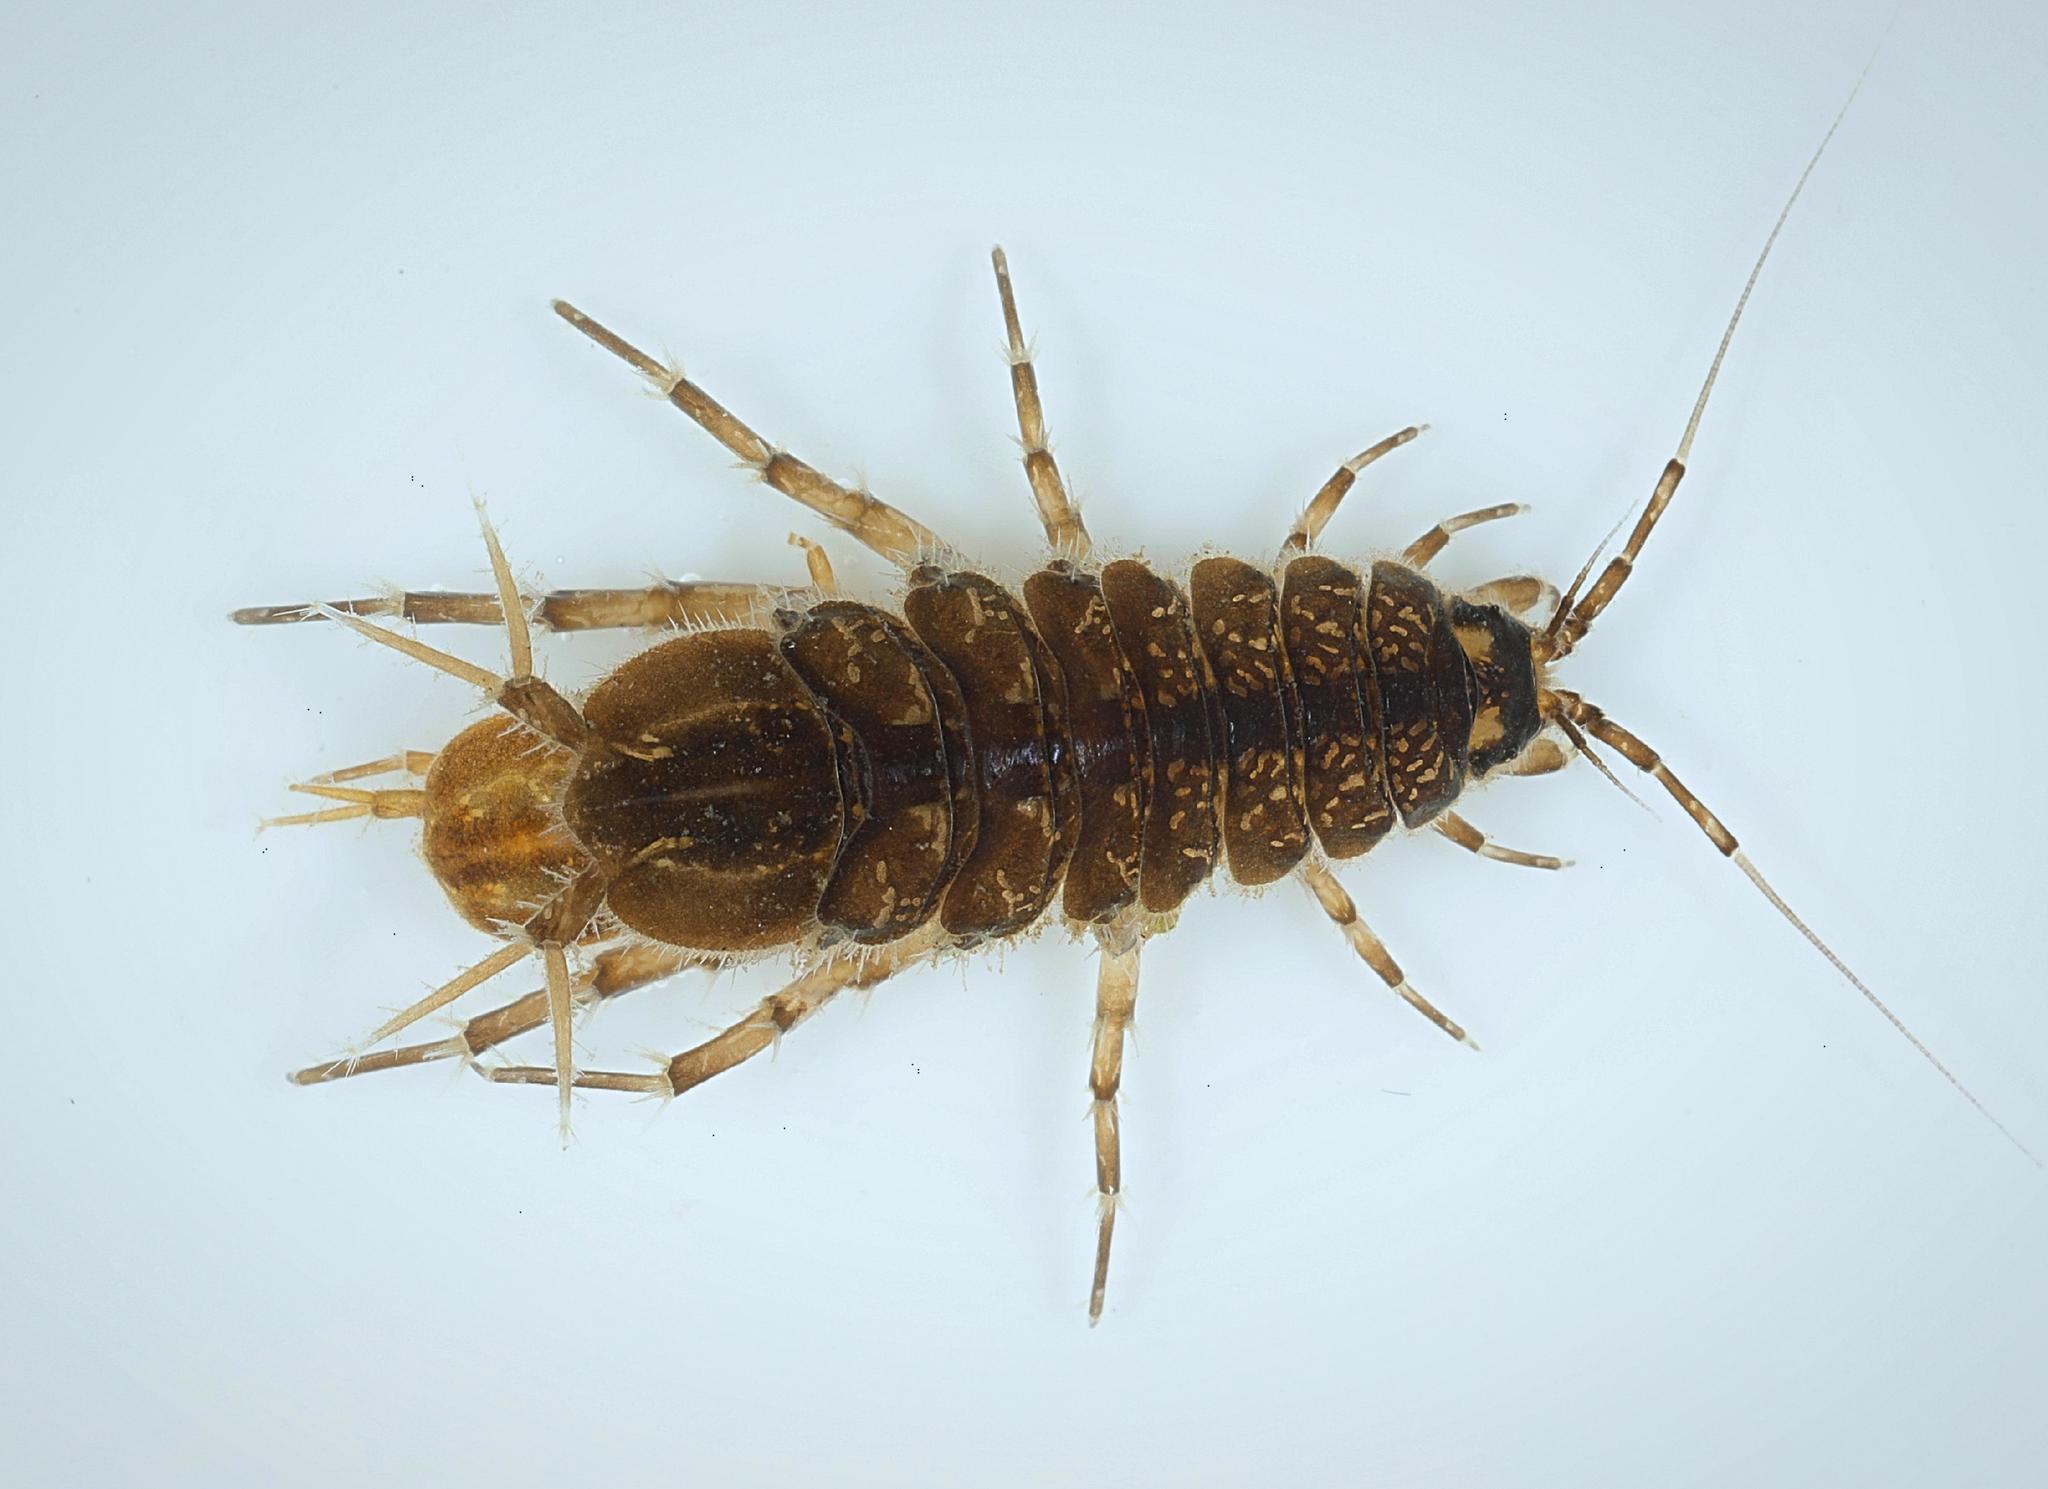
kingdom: Animalia
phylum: Arthropoda
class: Malacostraca
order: Isopoda
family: Asellidae
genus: Asellus
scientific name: Asellus aquaticus
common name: Water hog lice/slaters
